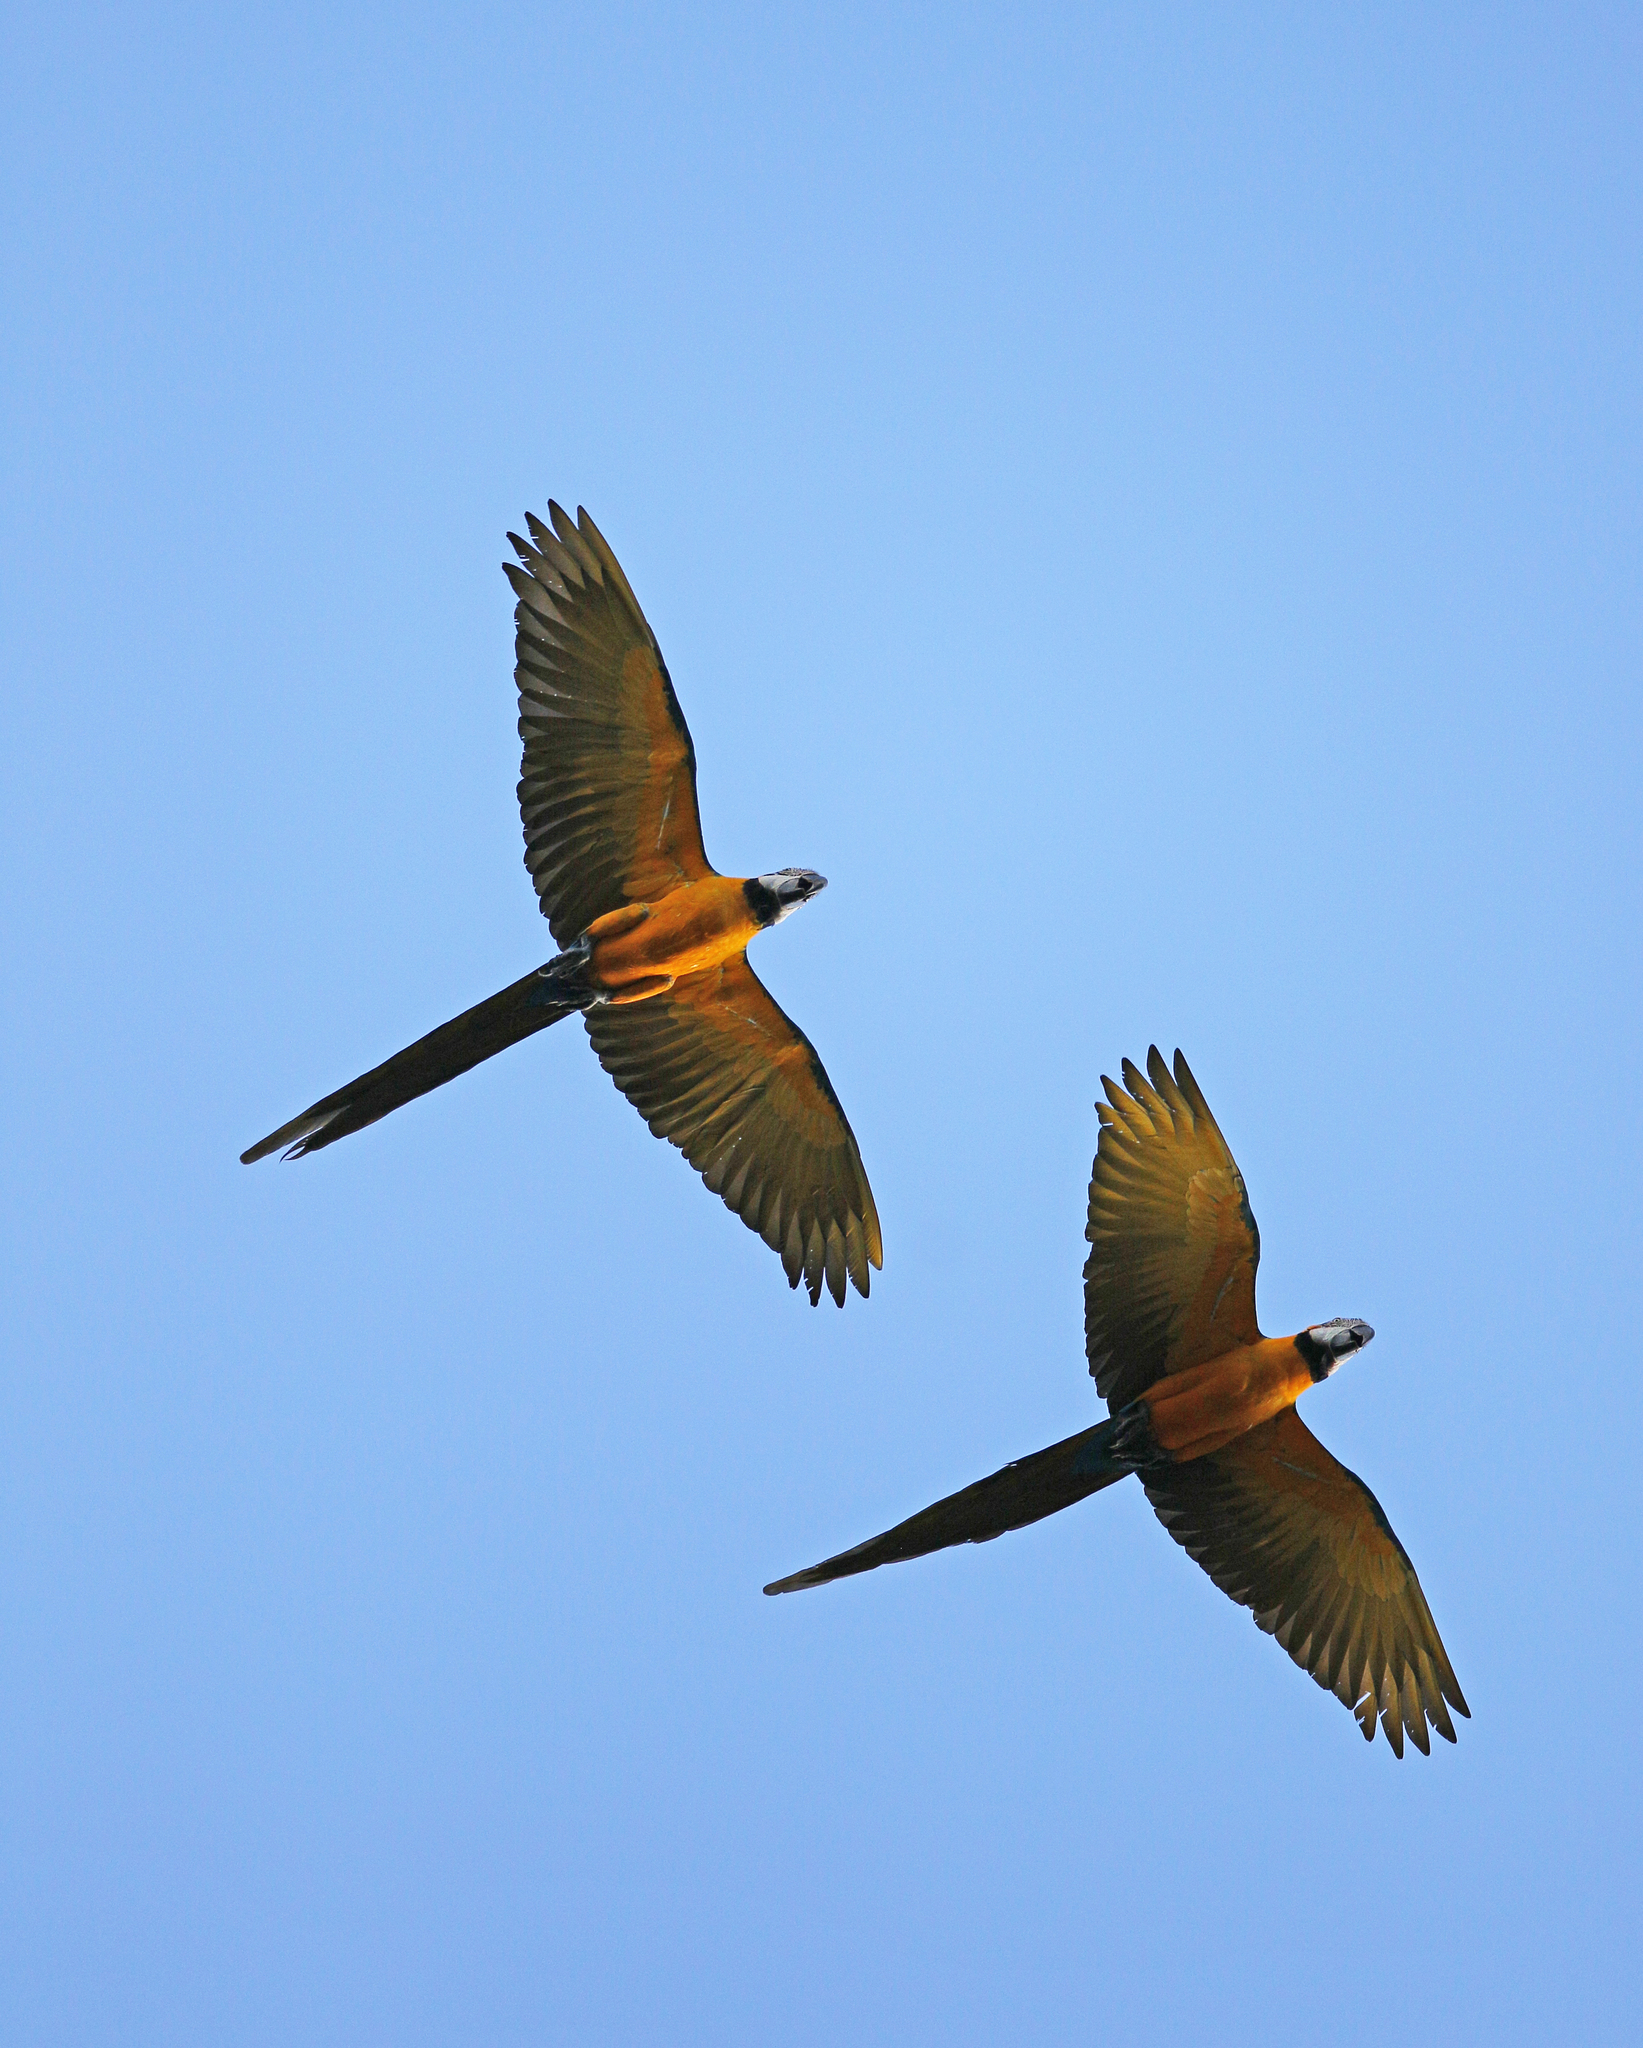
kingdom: Animalia
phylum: Chordata
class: Aves
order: Psittaciformes
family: Psittacidae
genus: Ara
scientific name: Ara ararauna
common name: Blue-and-yellow macaw
